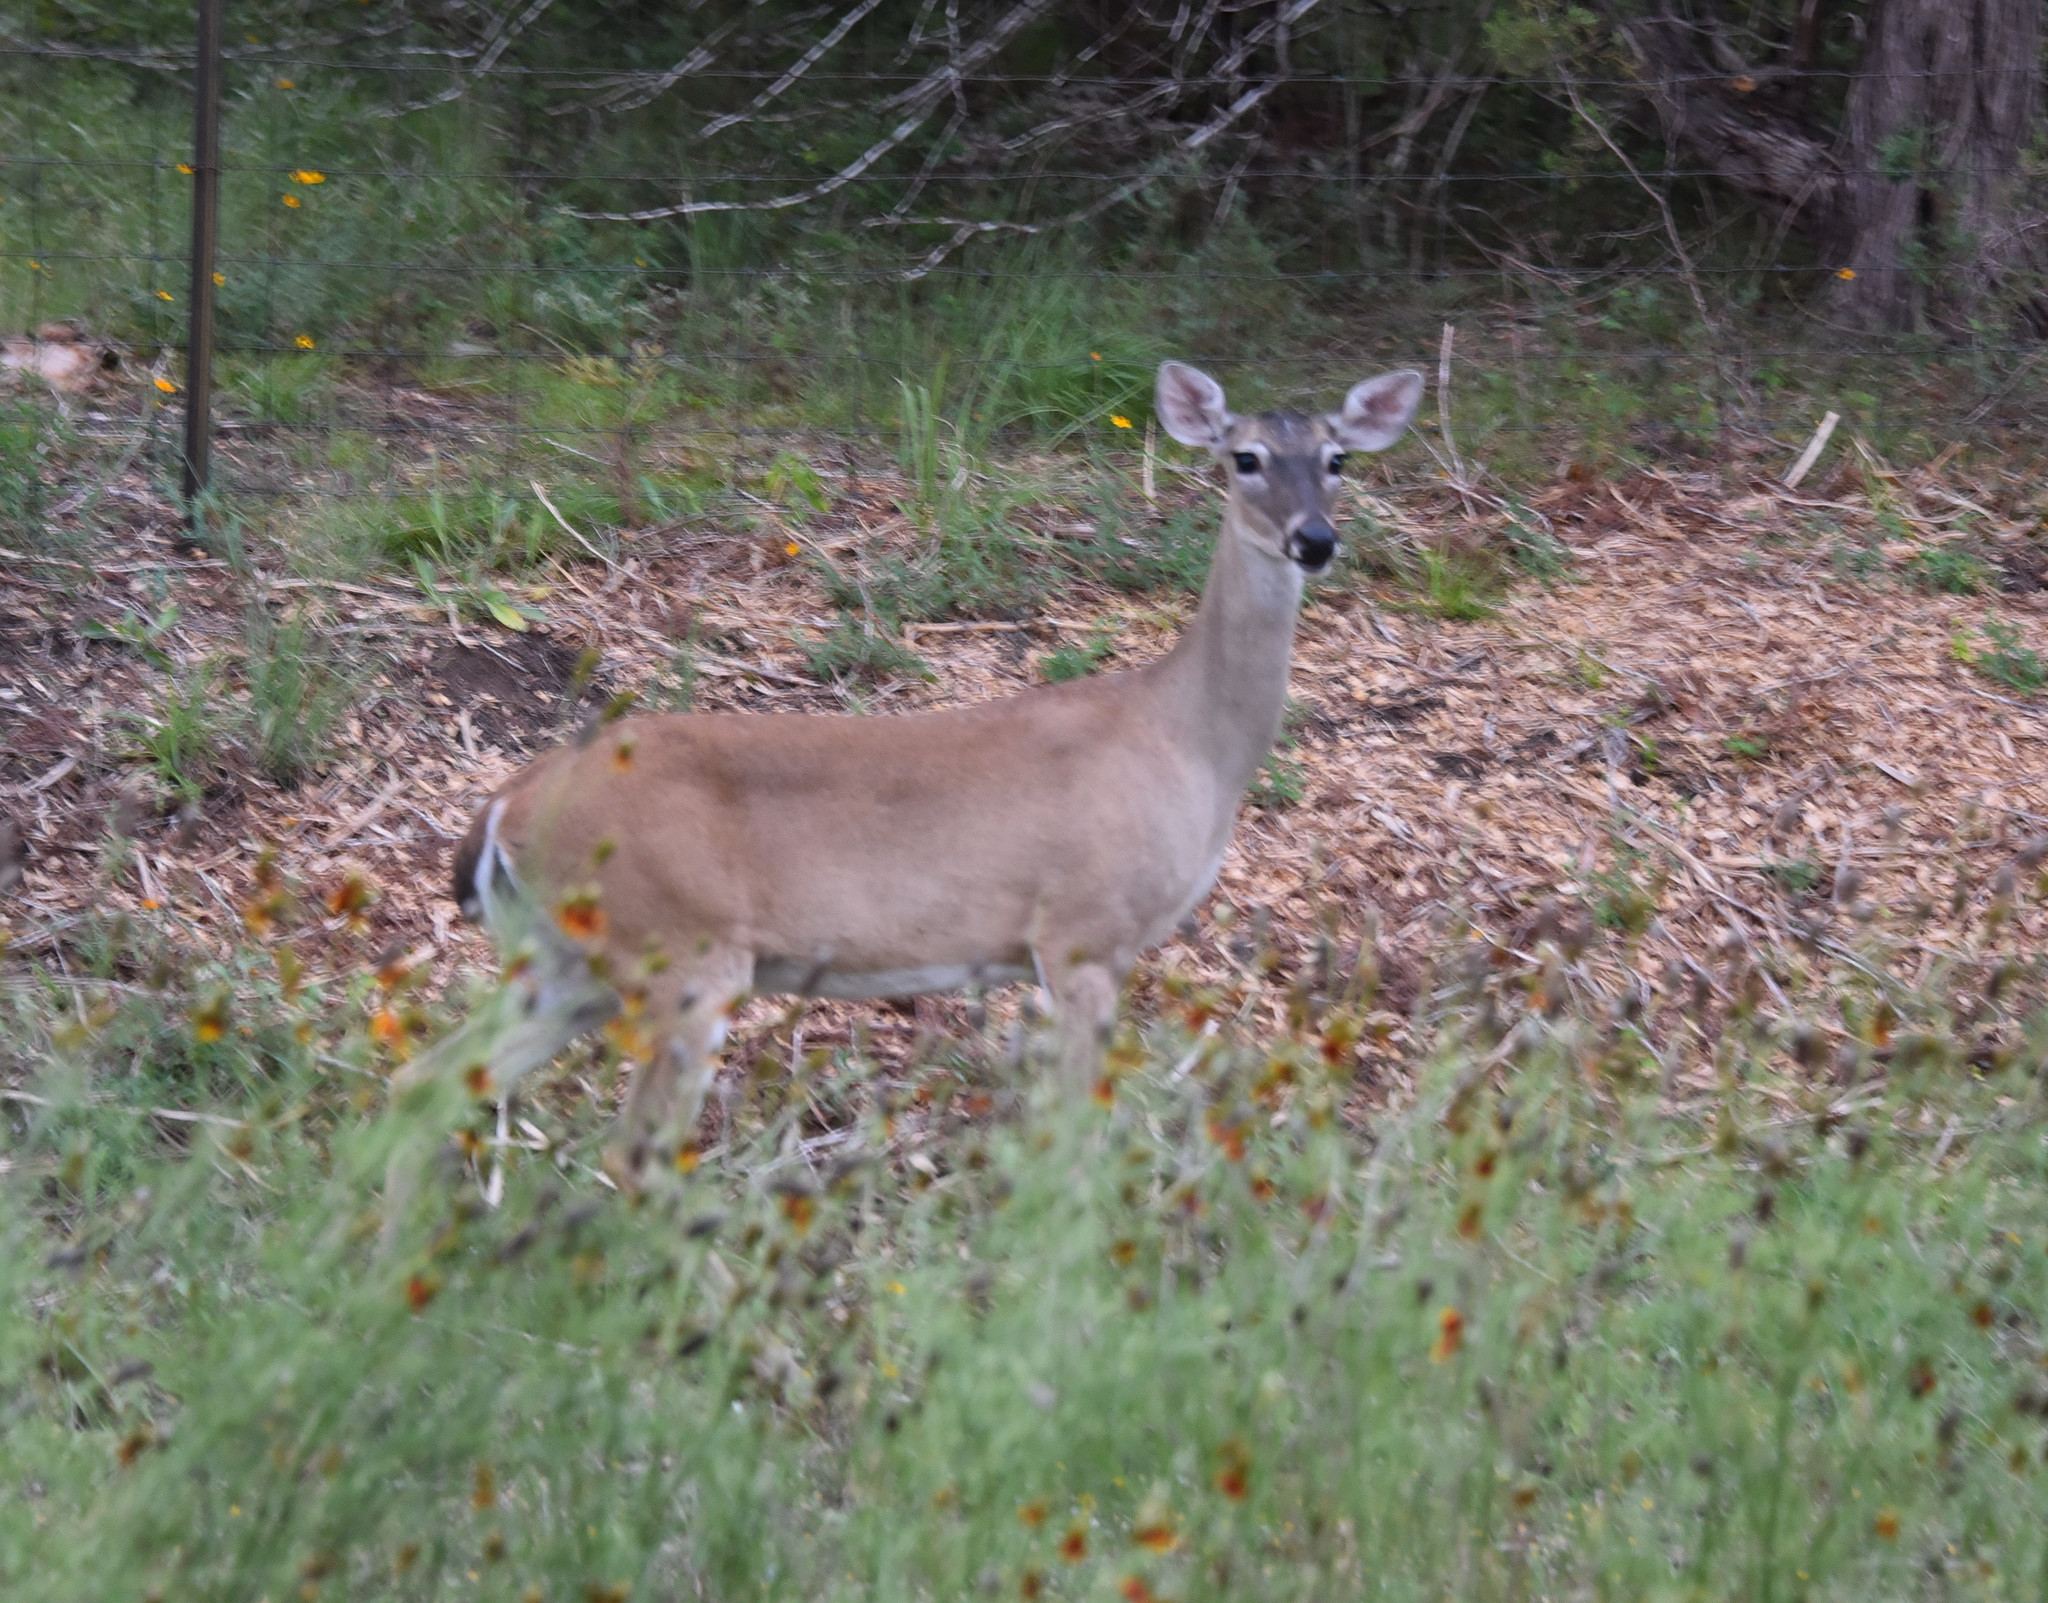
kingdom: Animalia
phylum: Chordata
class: Mammalia
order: Artiodactyla
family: Cervidae
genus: Odocoileus
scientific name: Odocoileus virginianus
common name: White-tailed deer
